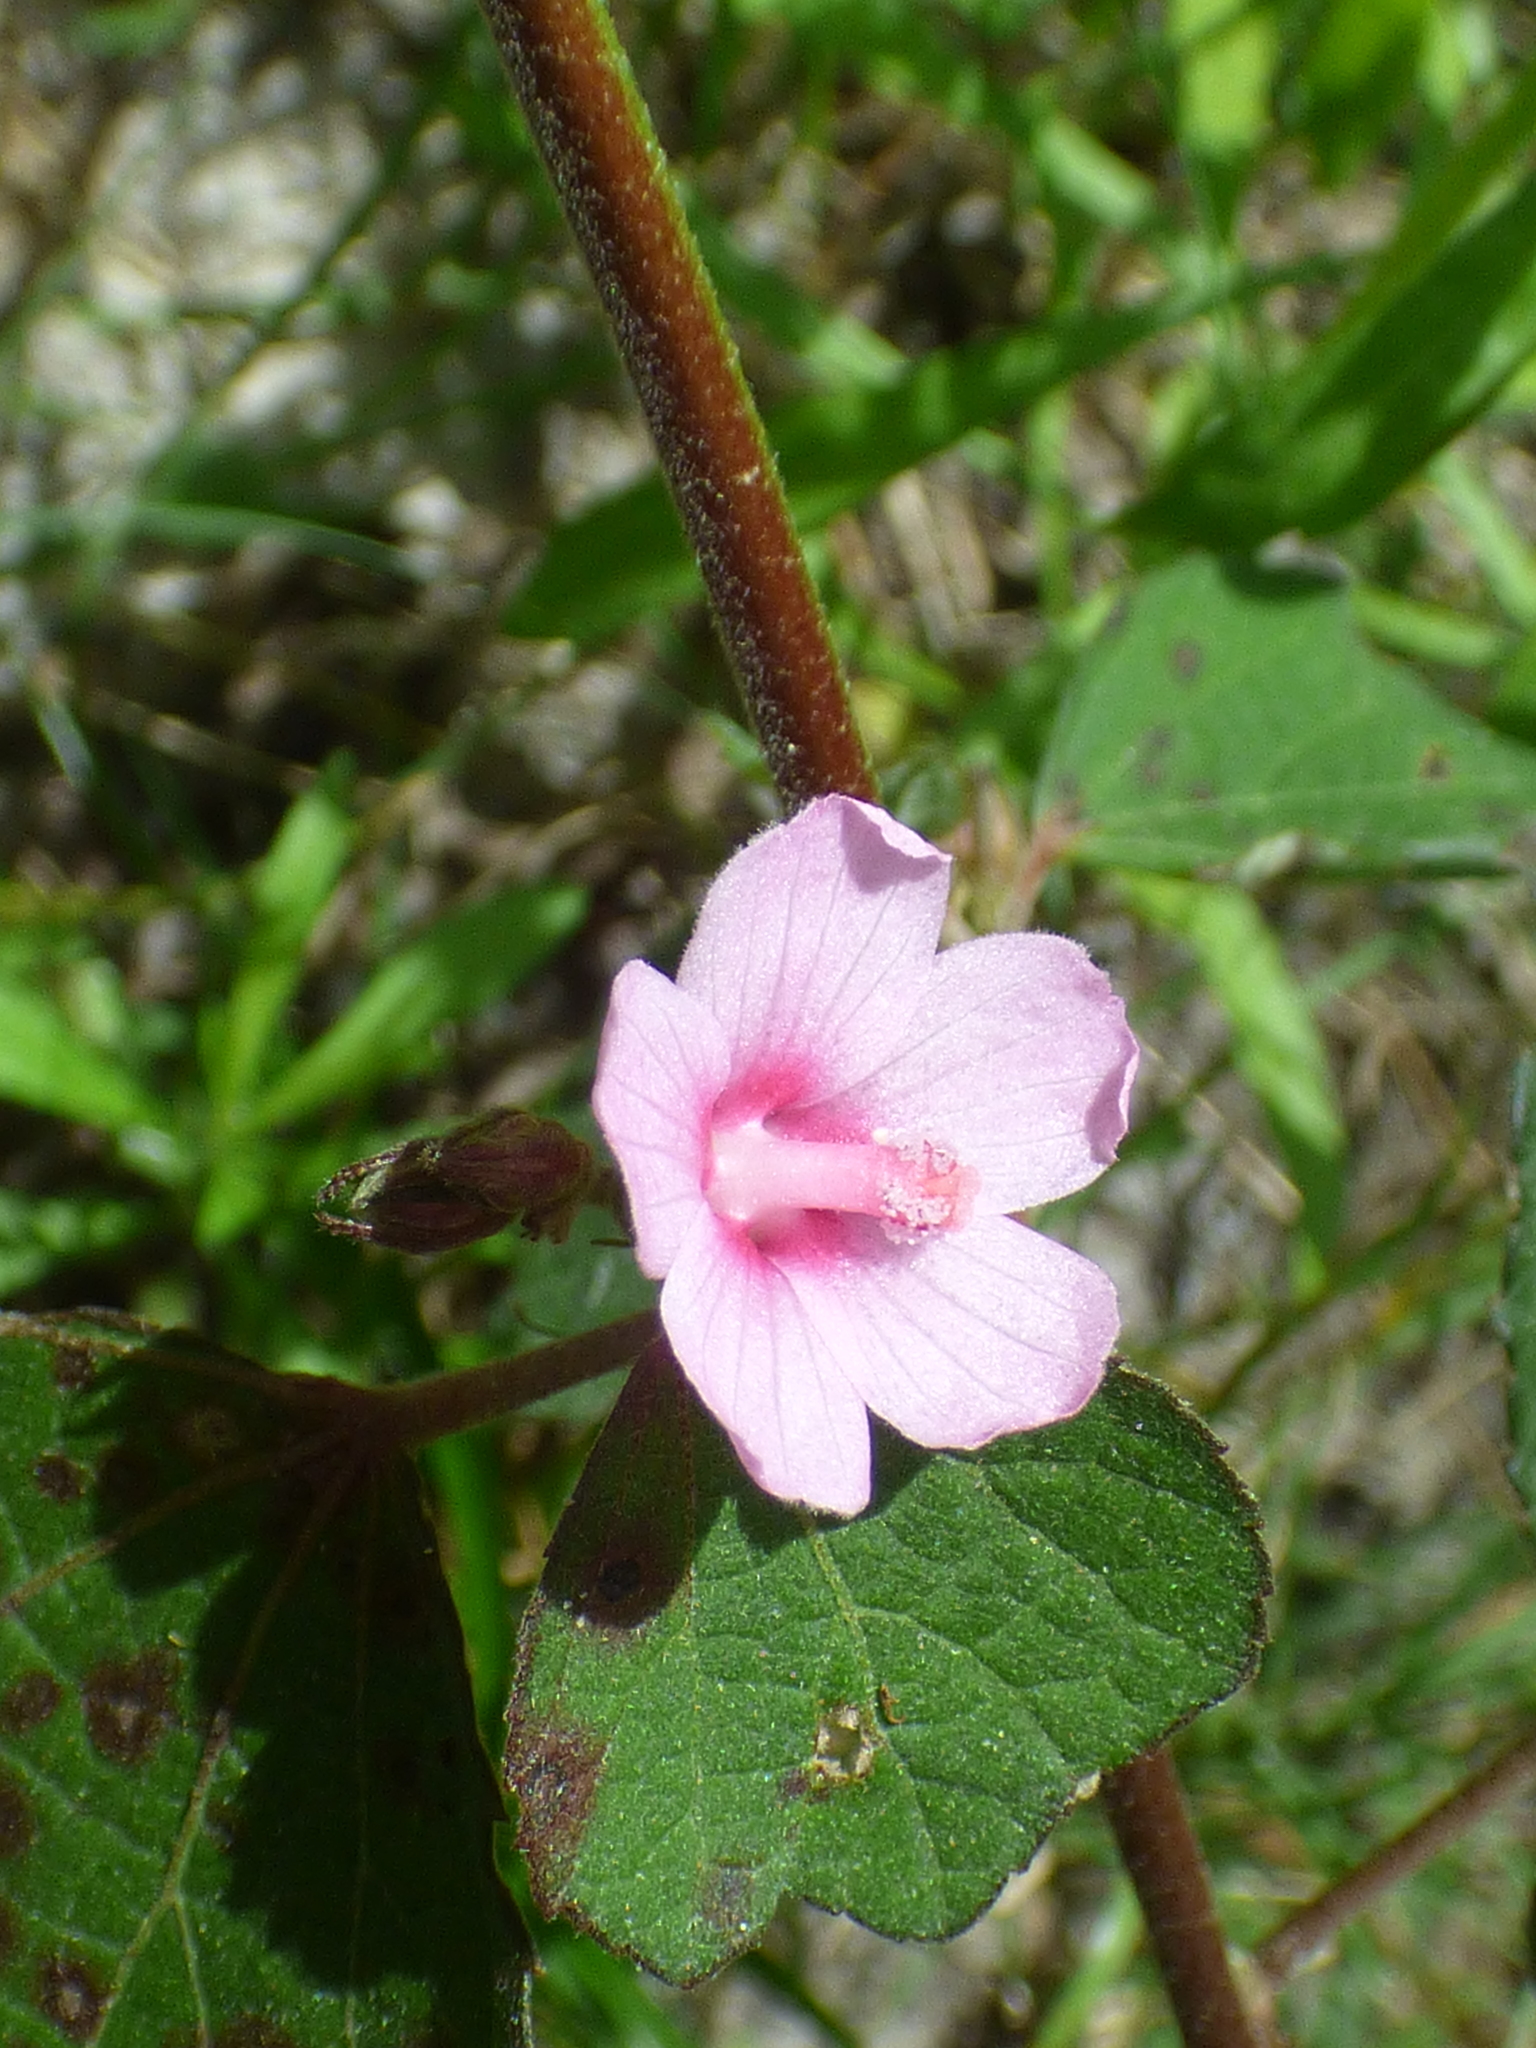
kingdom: Plantae
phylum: Tracheophyta
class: Magnoliopsida
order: Malvales
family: Malvaceae
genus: Urena
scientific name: Urena lobata
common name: Caesarweed
